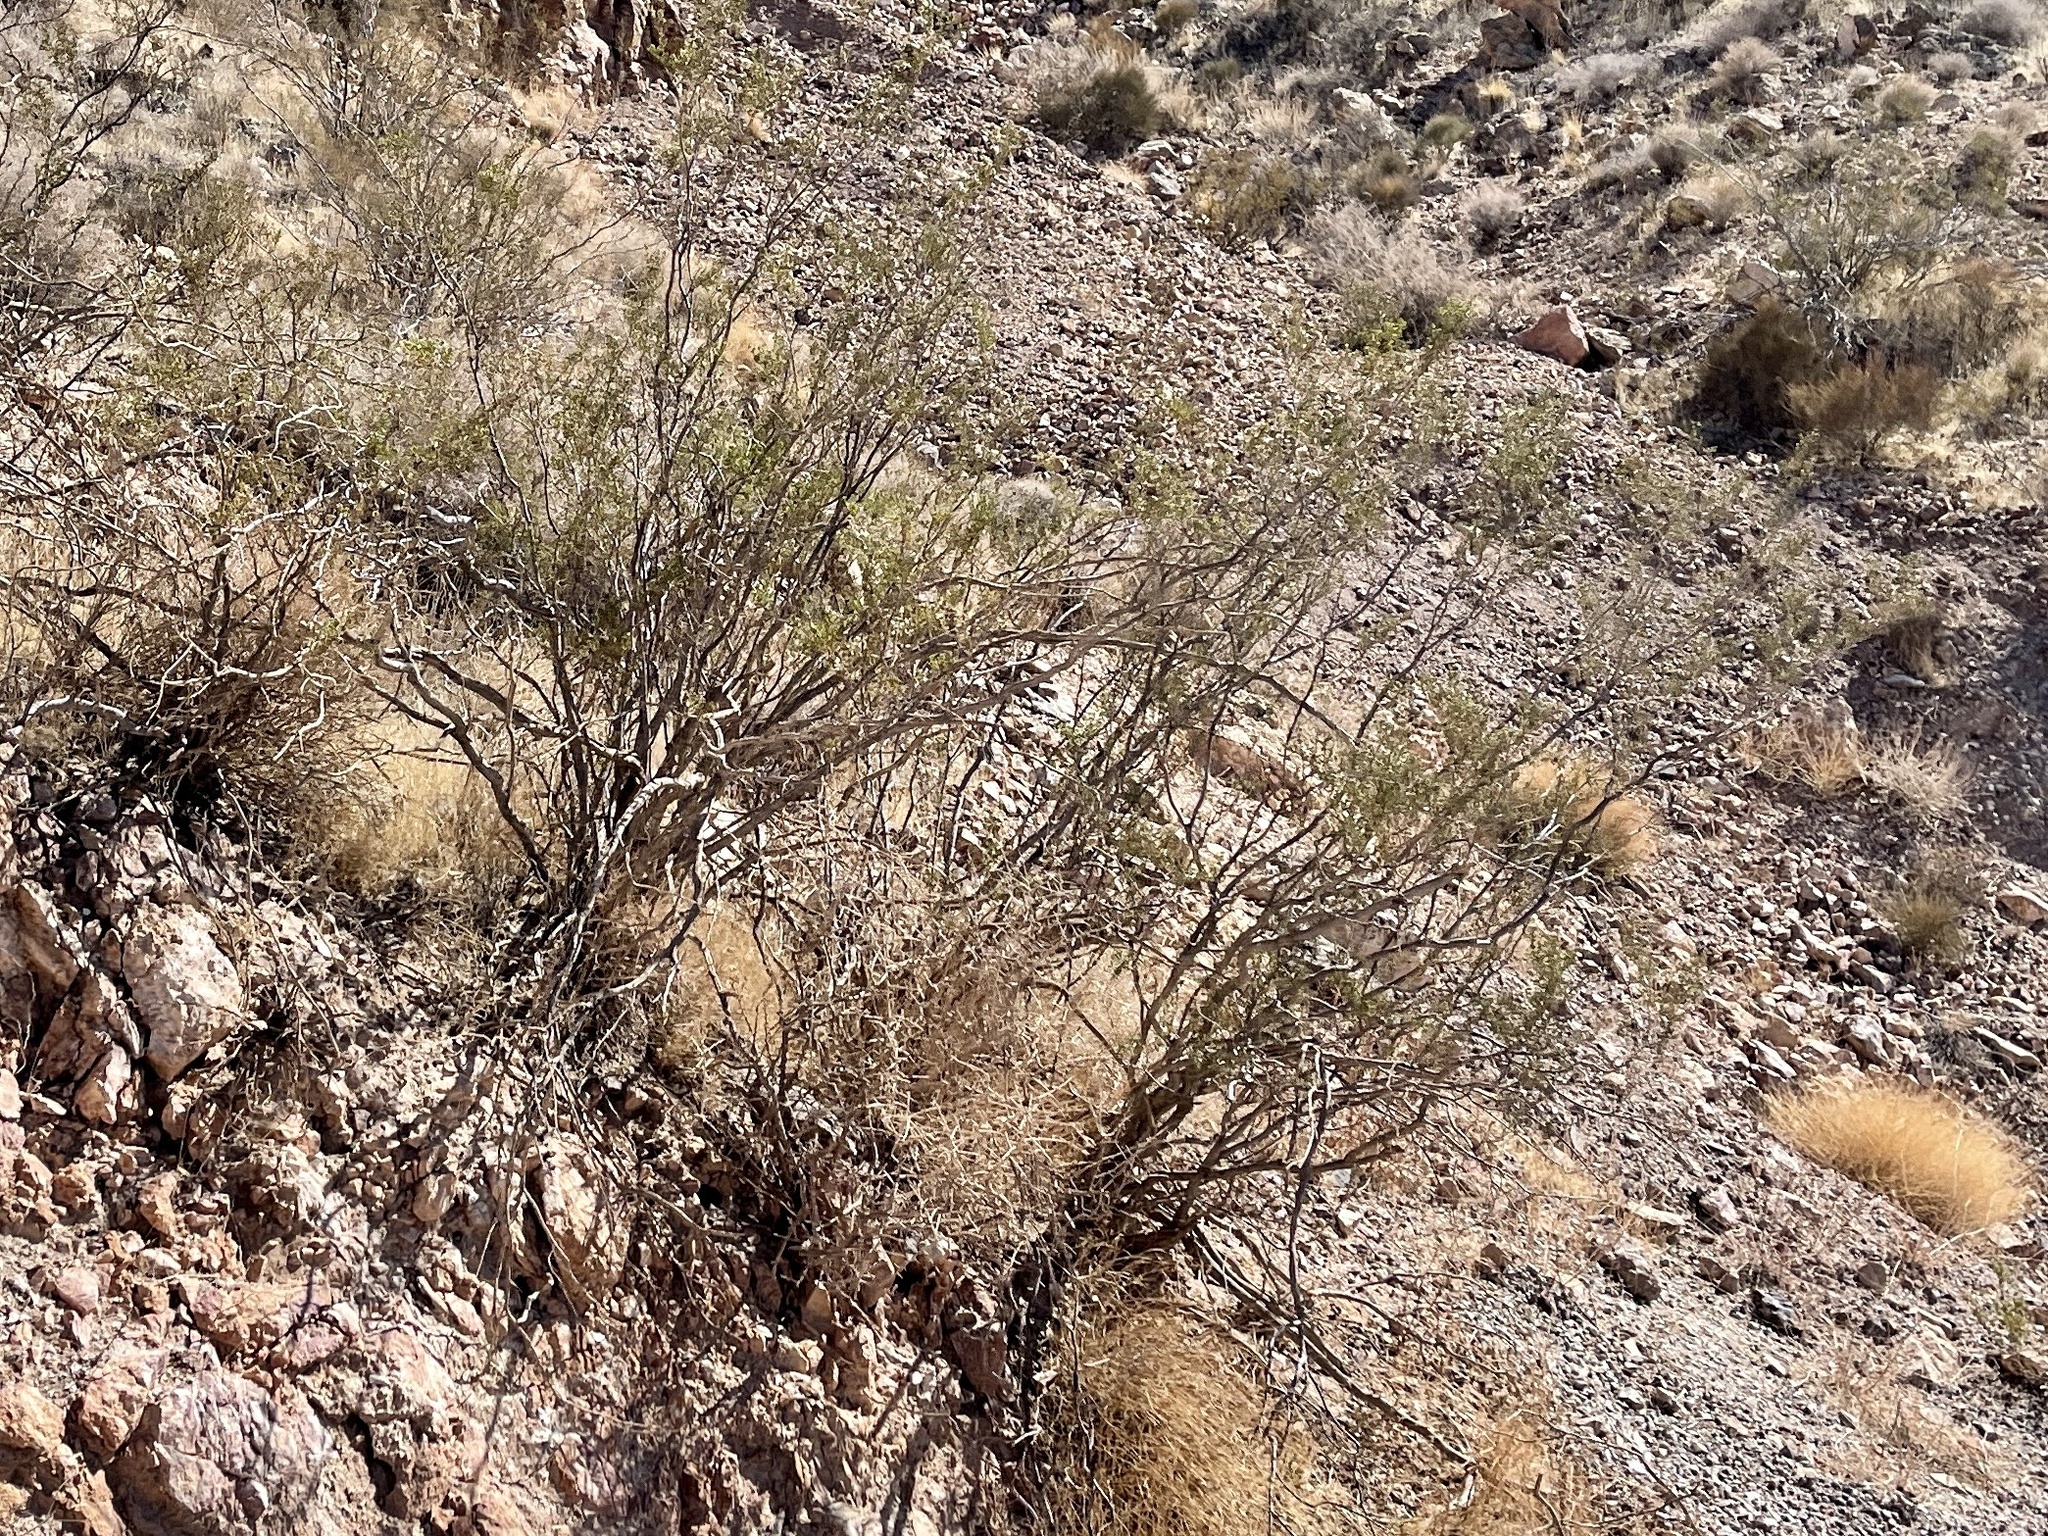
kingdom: Plantae
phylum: Tracheophyta
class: Magnoliopsida
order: Zygophyllales
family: Zygophyllaceae
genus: Larrea
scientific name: Larrea tridentata
